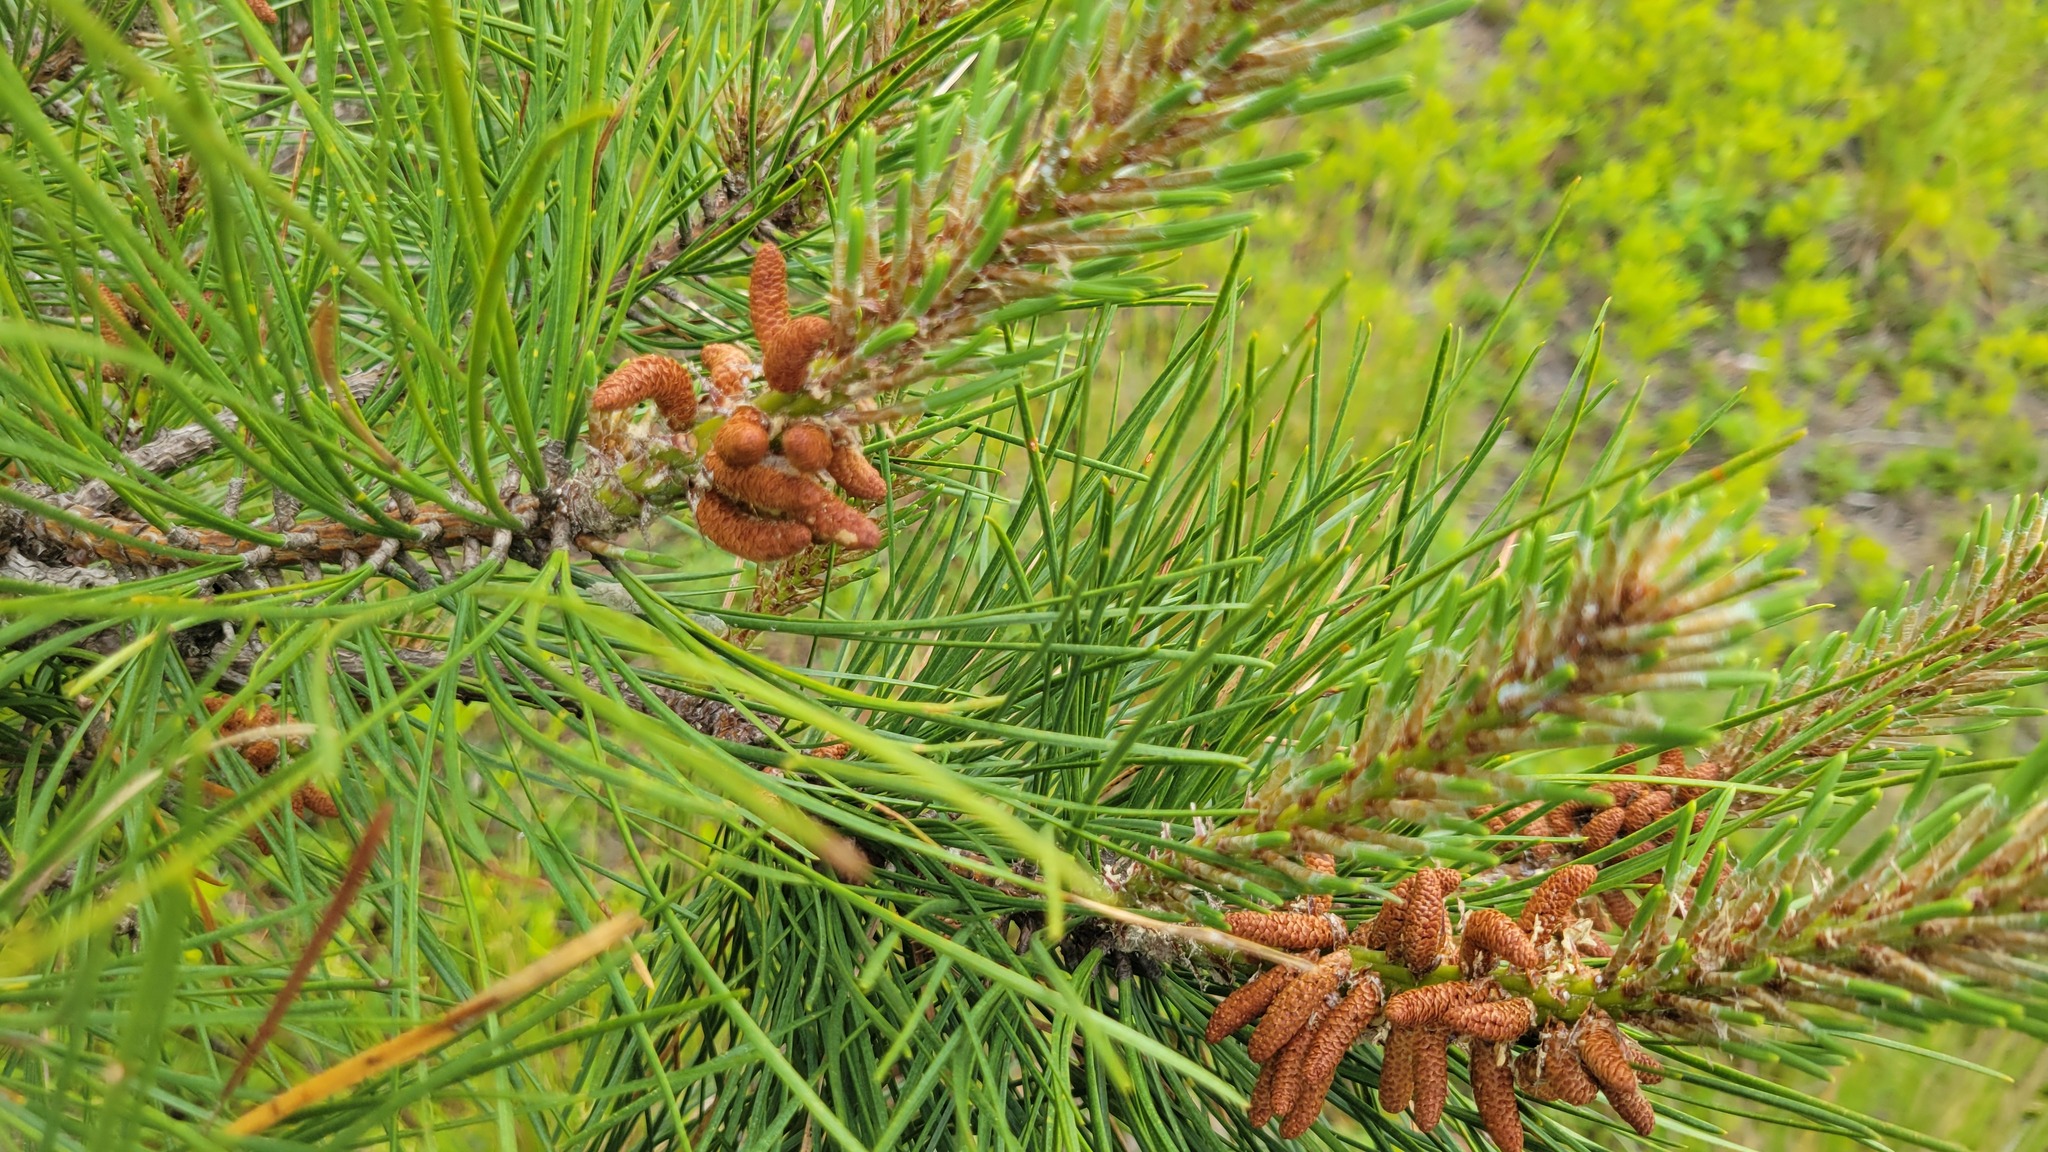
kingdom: Plantae
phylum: Tracheophyta
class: Pinopsida
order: Pinales
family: Pinaceae
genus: Pinus
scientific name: Pinus rigida
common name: Pitch pine
